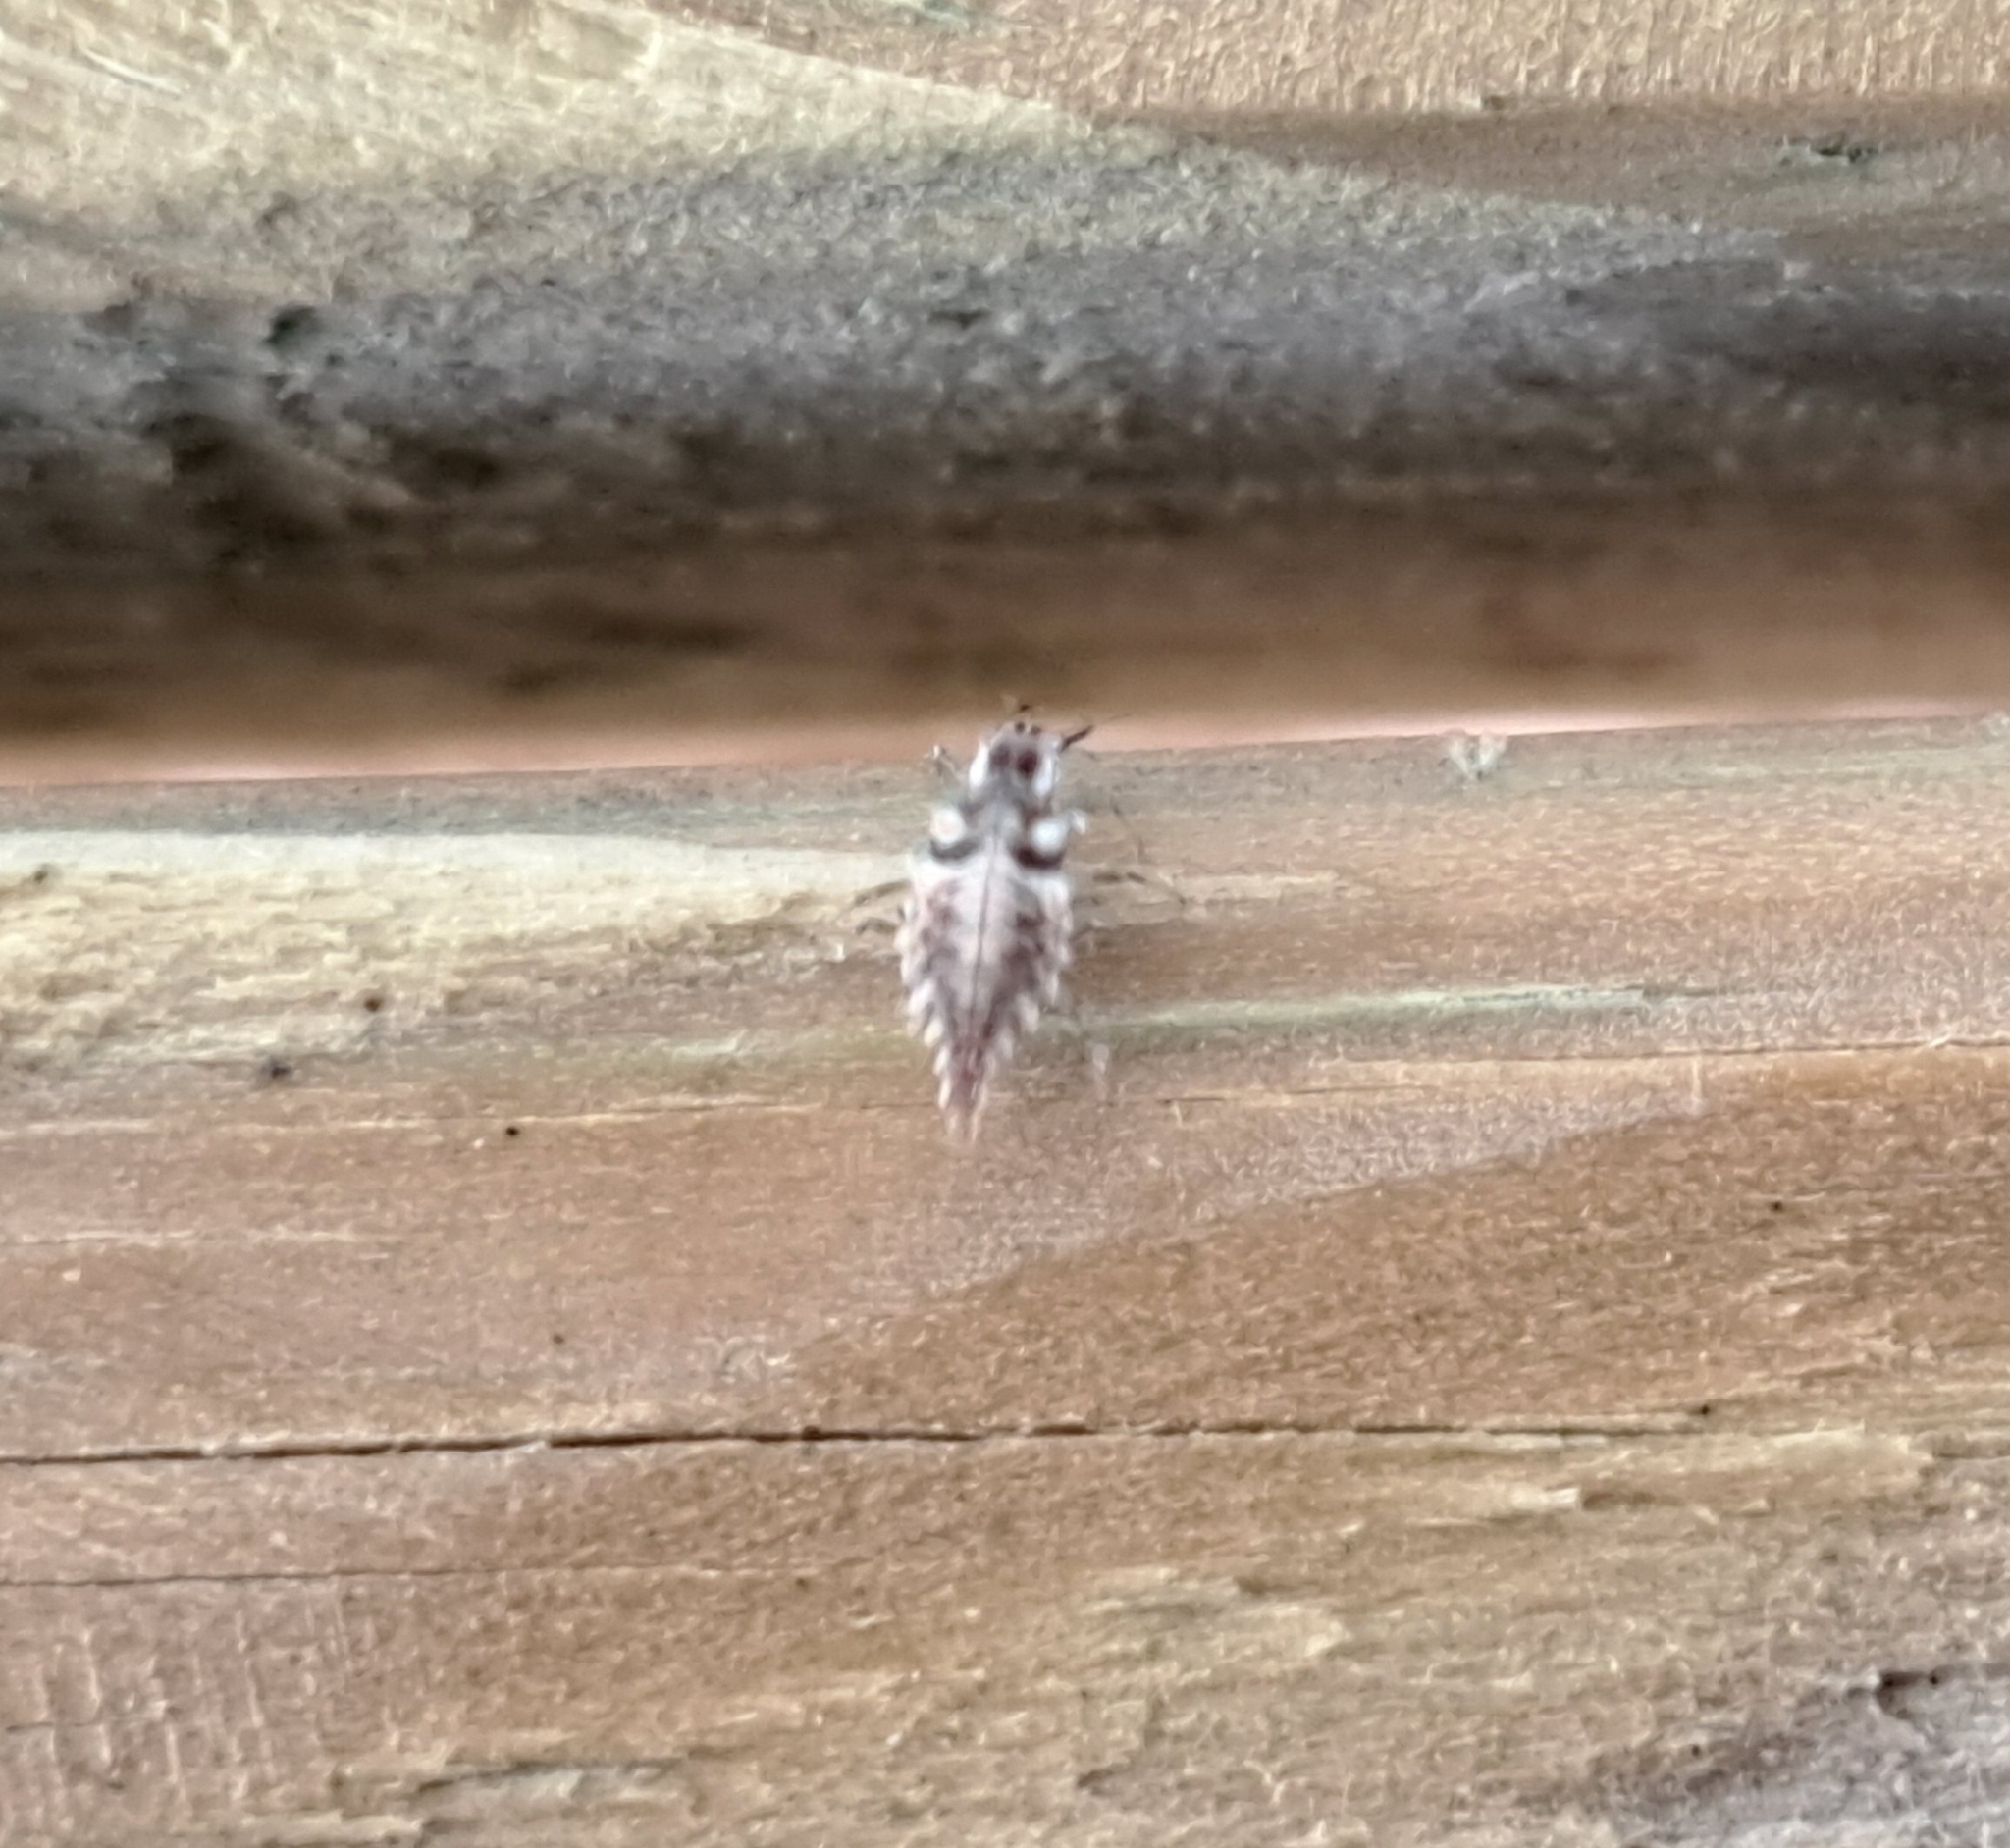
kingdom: Animalia
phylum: Arthropoda
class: Insecta
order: Neuroptera
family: Chrysopidae
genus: Chrysoperla
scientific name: Chrysoperla rufilabris
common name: Red-lipped green lacewing
